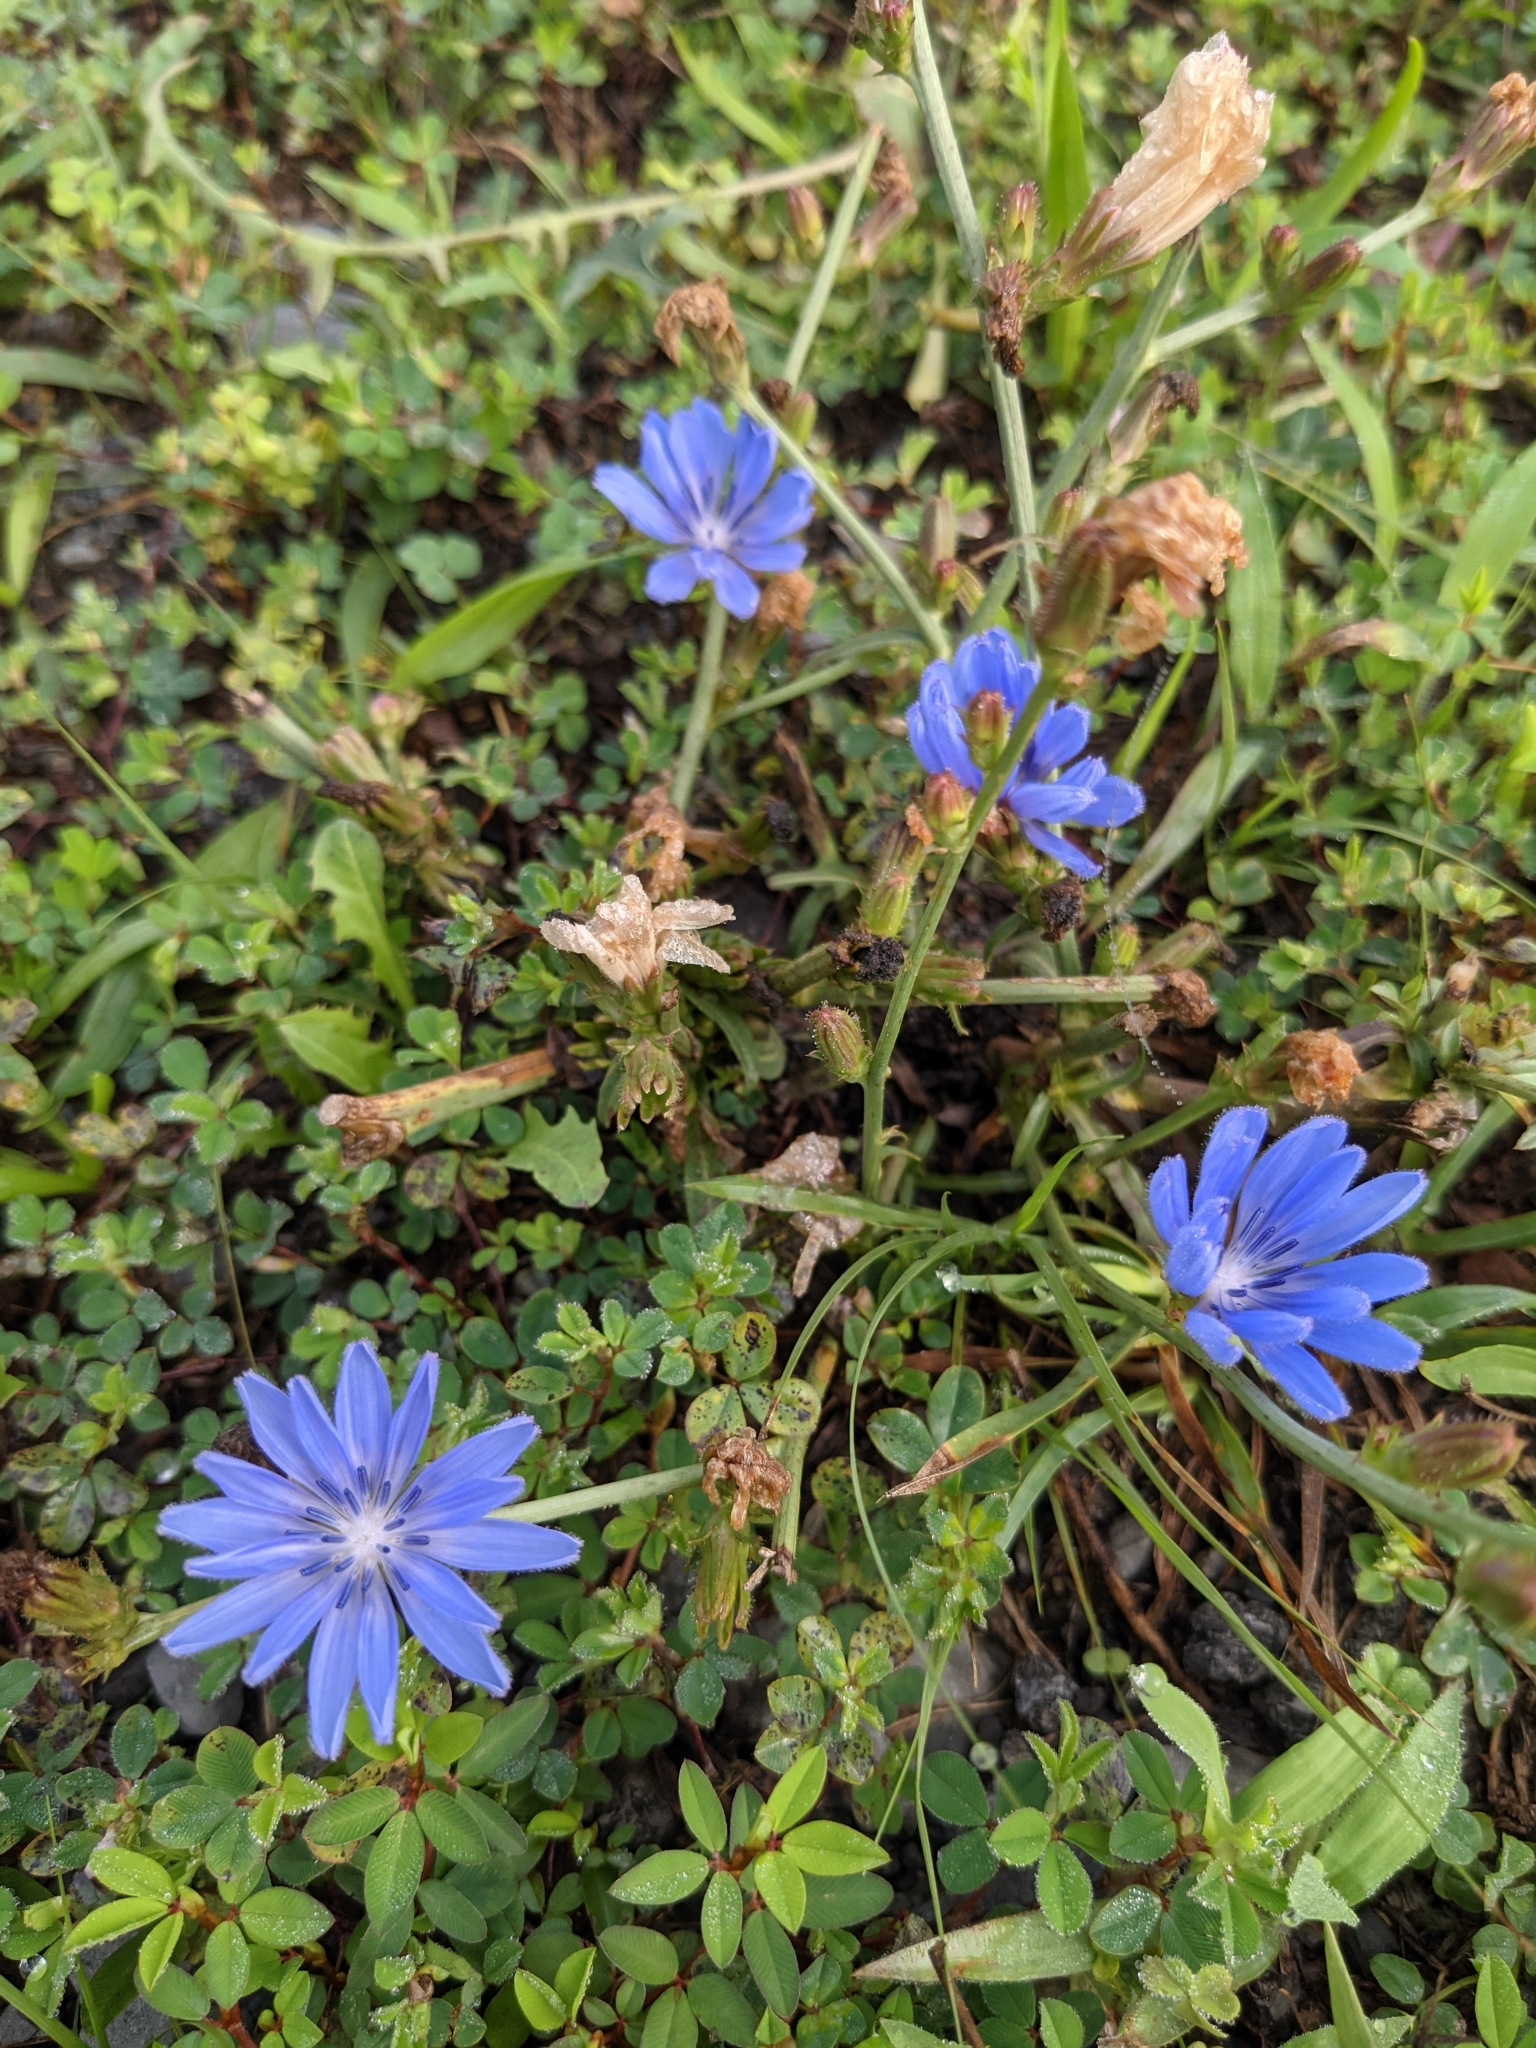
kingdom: Plantae
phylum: Tracheophyta
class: Magnoliopsida
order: Asterales
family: Asteraceae
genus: Cichorium
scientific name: Cichorium intybus
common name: Chicory
